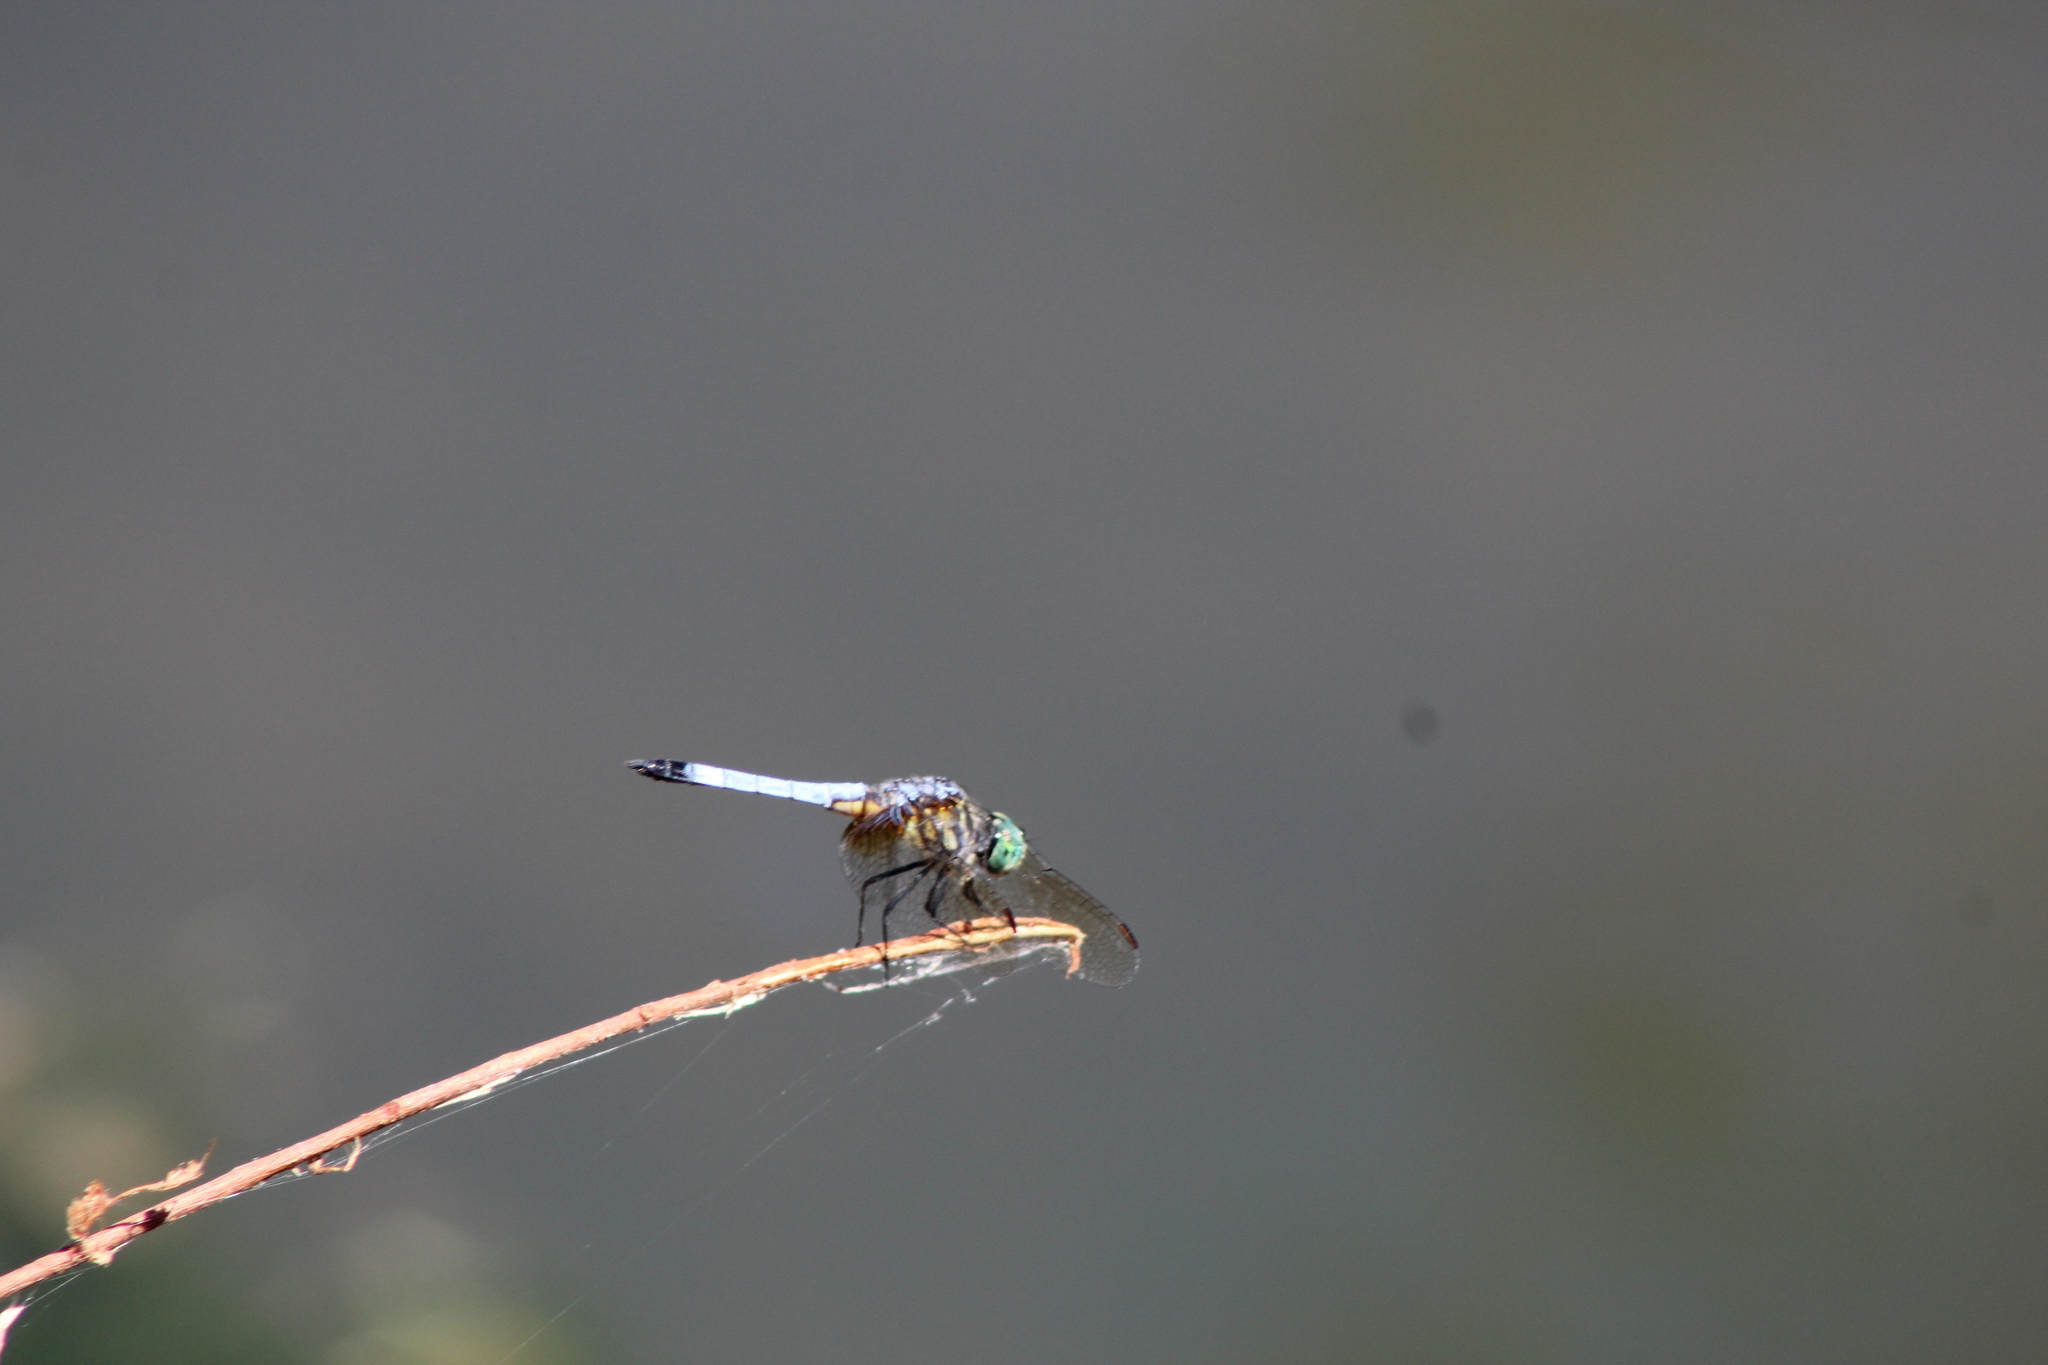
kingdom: Animalia
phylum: Arthropoda
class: Insecta
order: Odonata
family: Libellulidae
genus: Pachydiplax
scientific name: Pachydiplax longipennis
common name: Blue dasher
